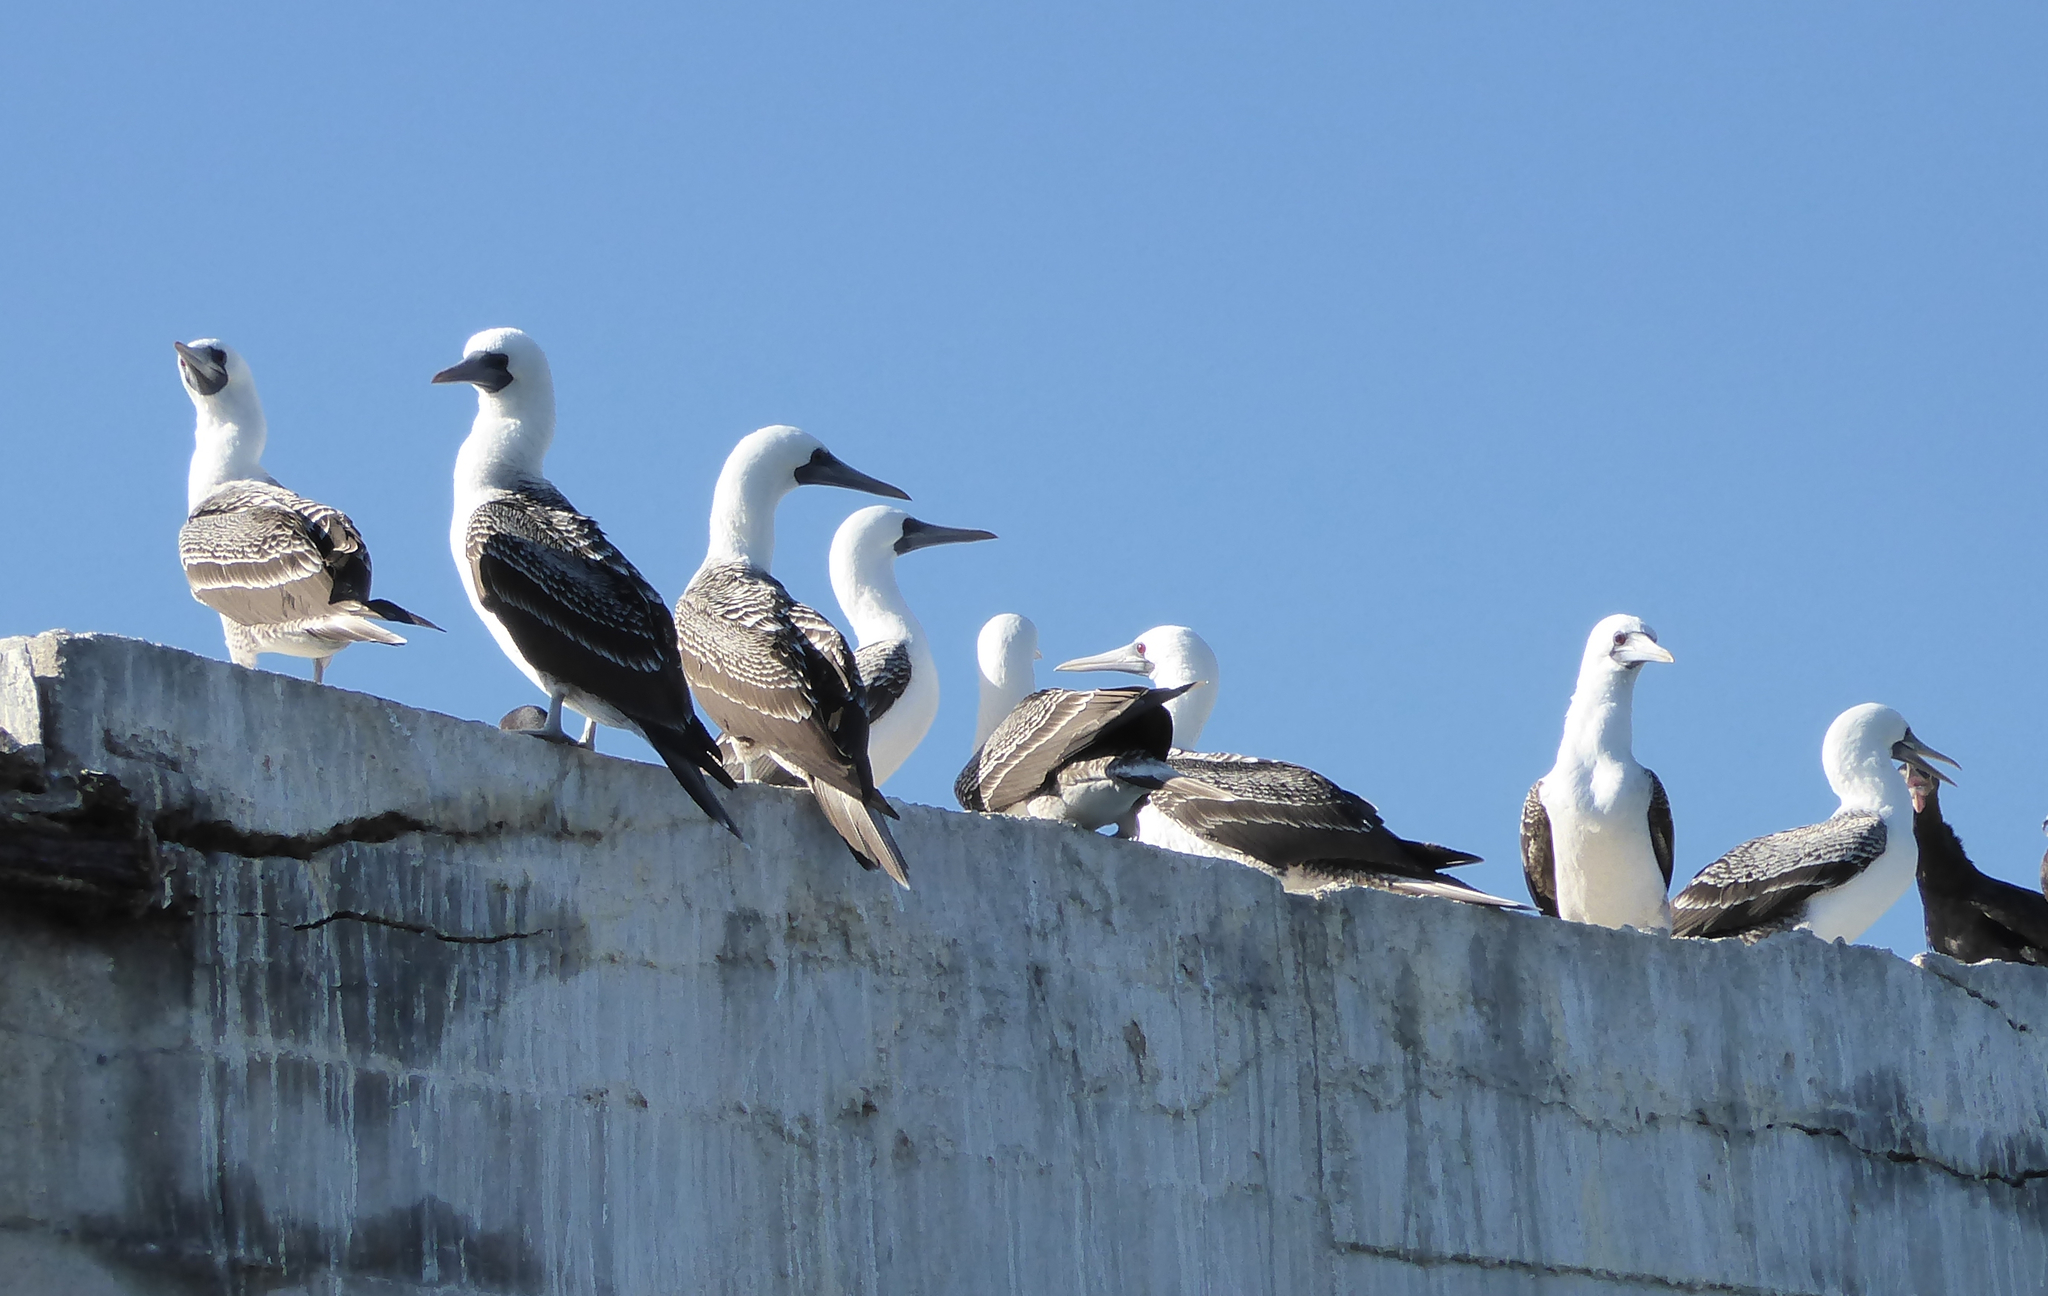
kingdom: Animalia
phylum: Chordata
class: Aves
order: Suliformes
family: Sulidae
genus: Sula
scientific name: Sula variegata
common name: Peruvian booby
